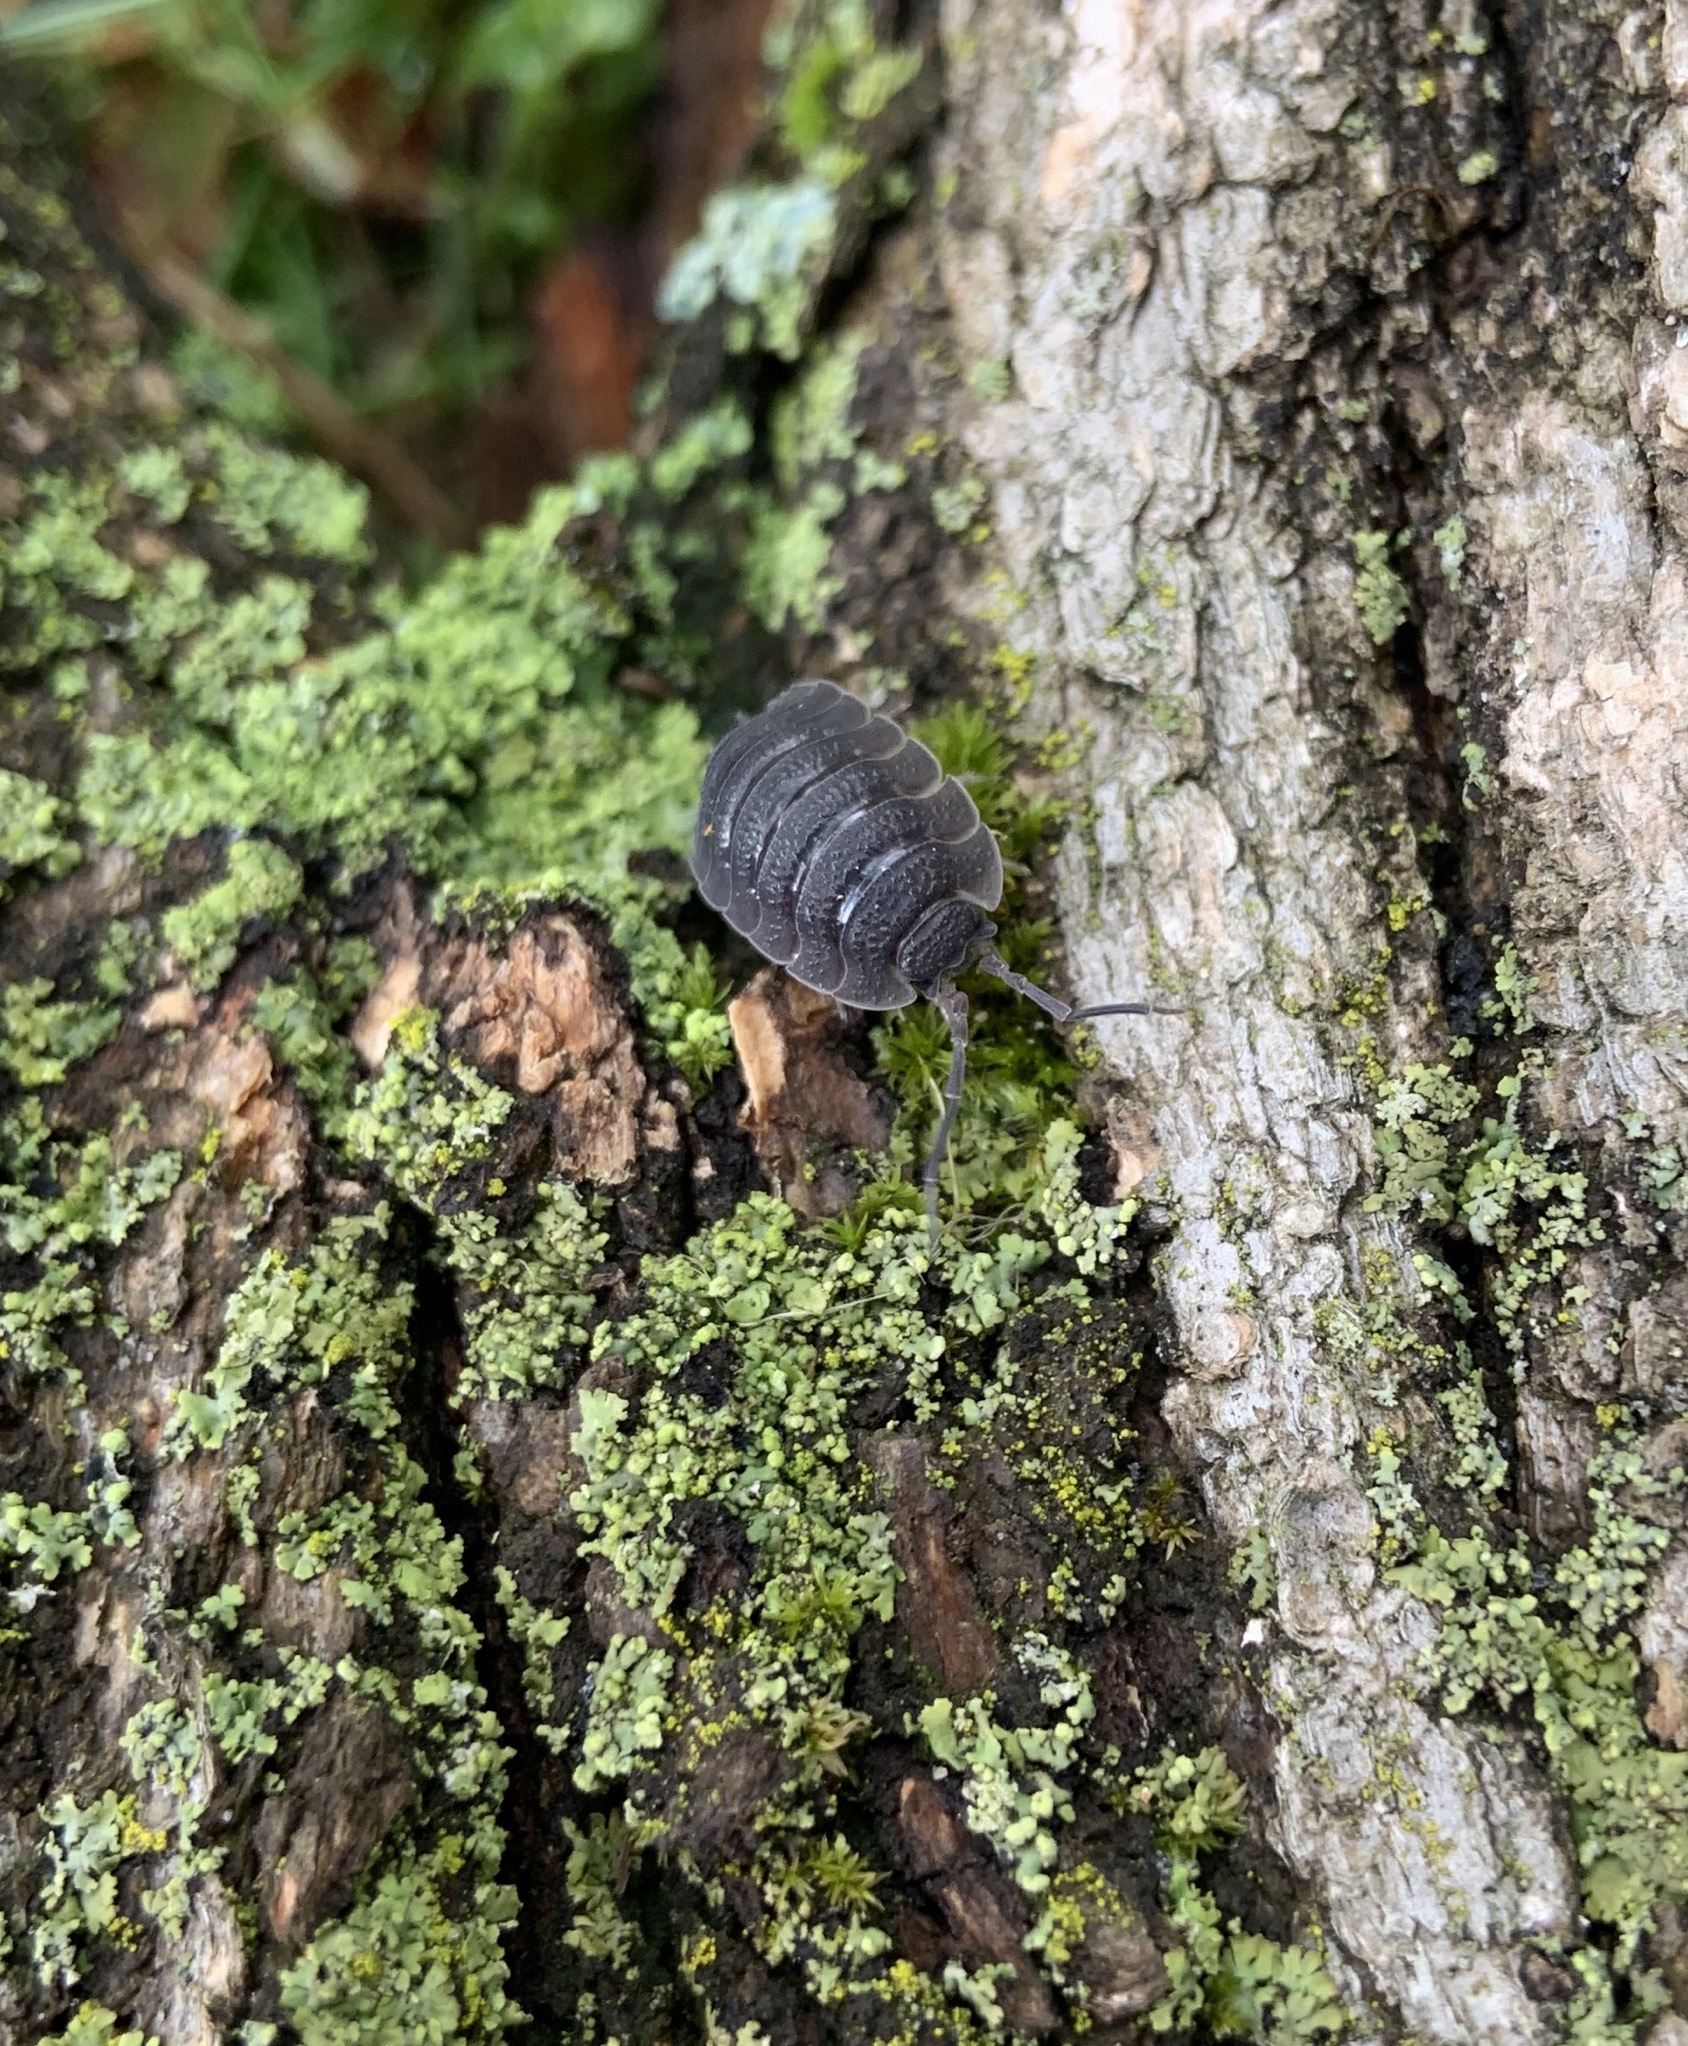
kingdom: Animalia
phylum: Arthropoda
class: Malacostraca
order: Isopoda
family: Porcellionidae
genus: Porcellio
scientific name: Porcellio scaber
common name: Common rough woodlouse
